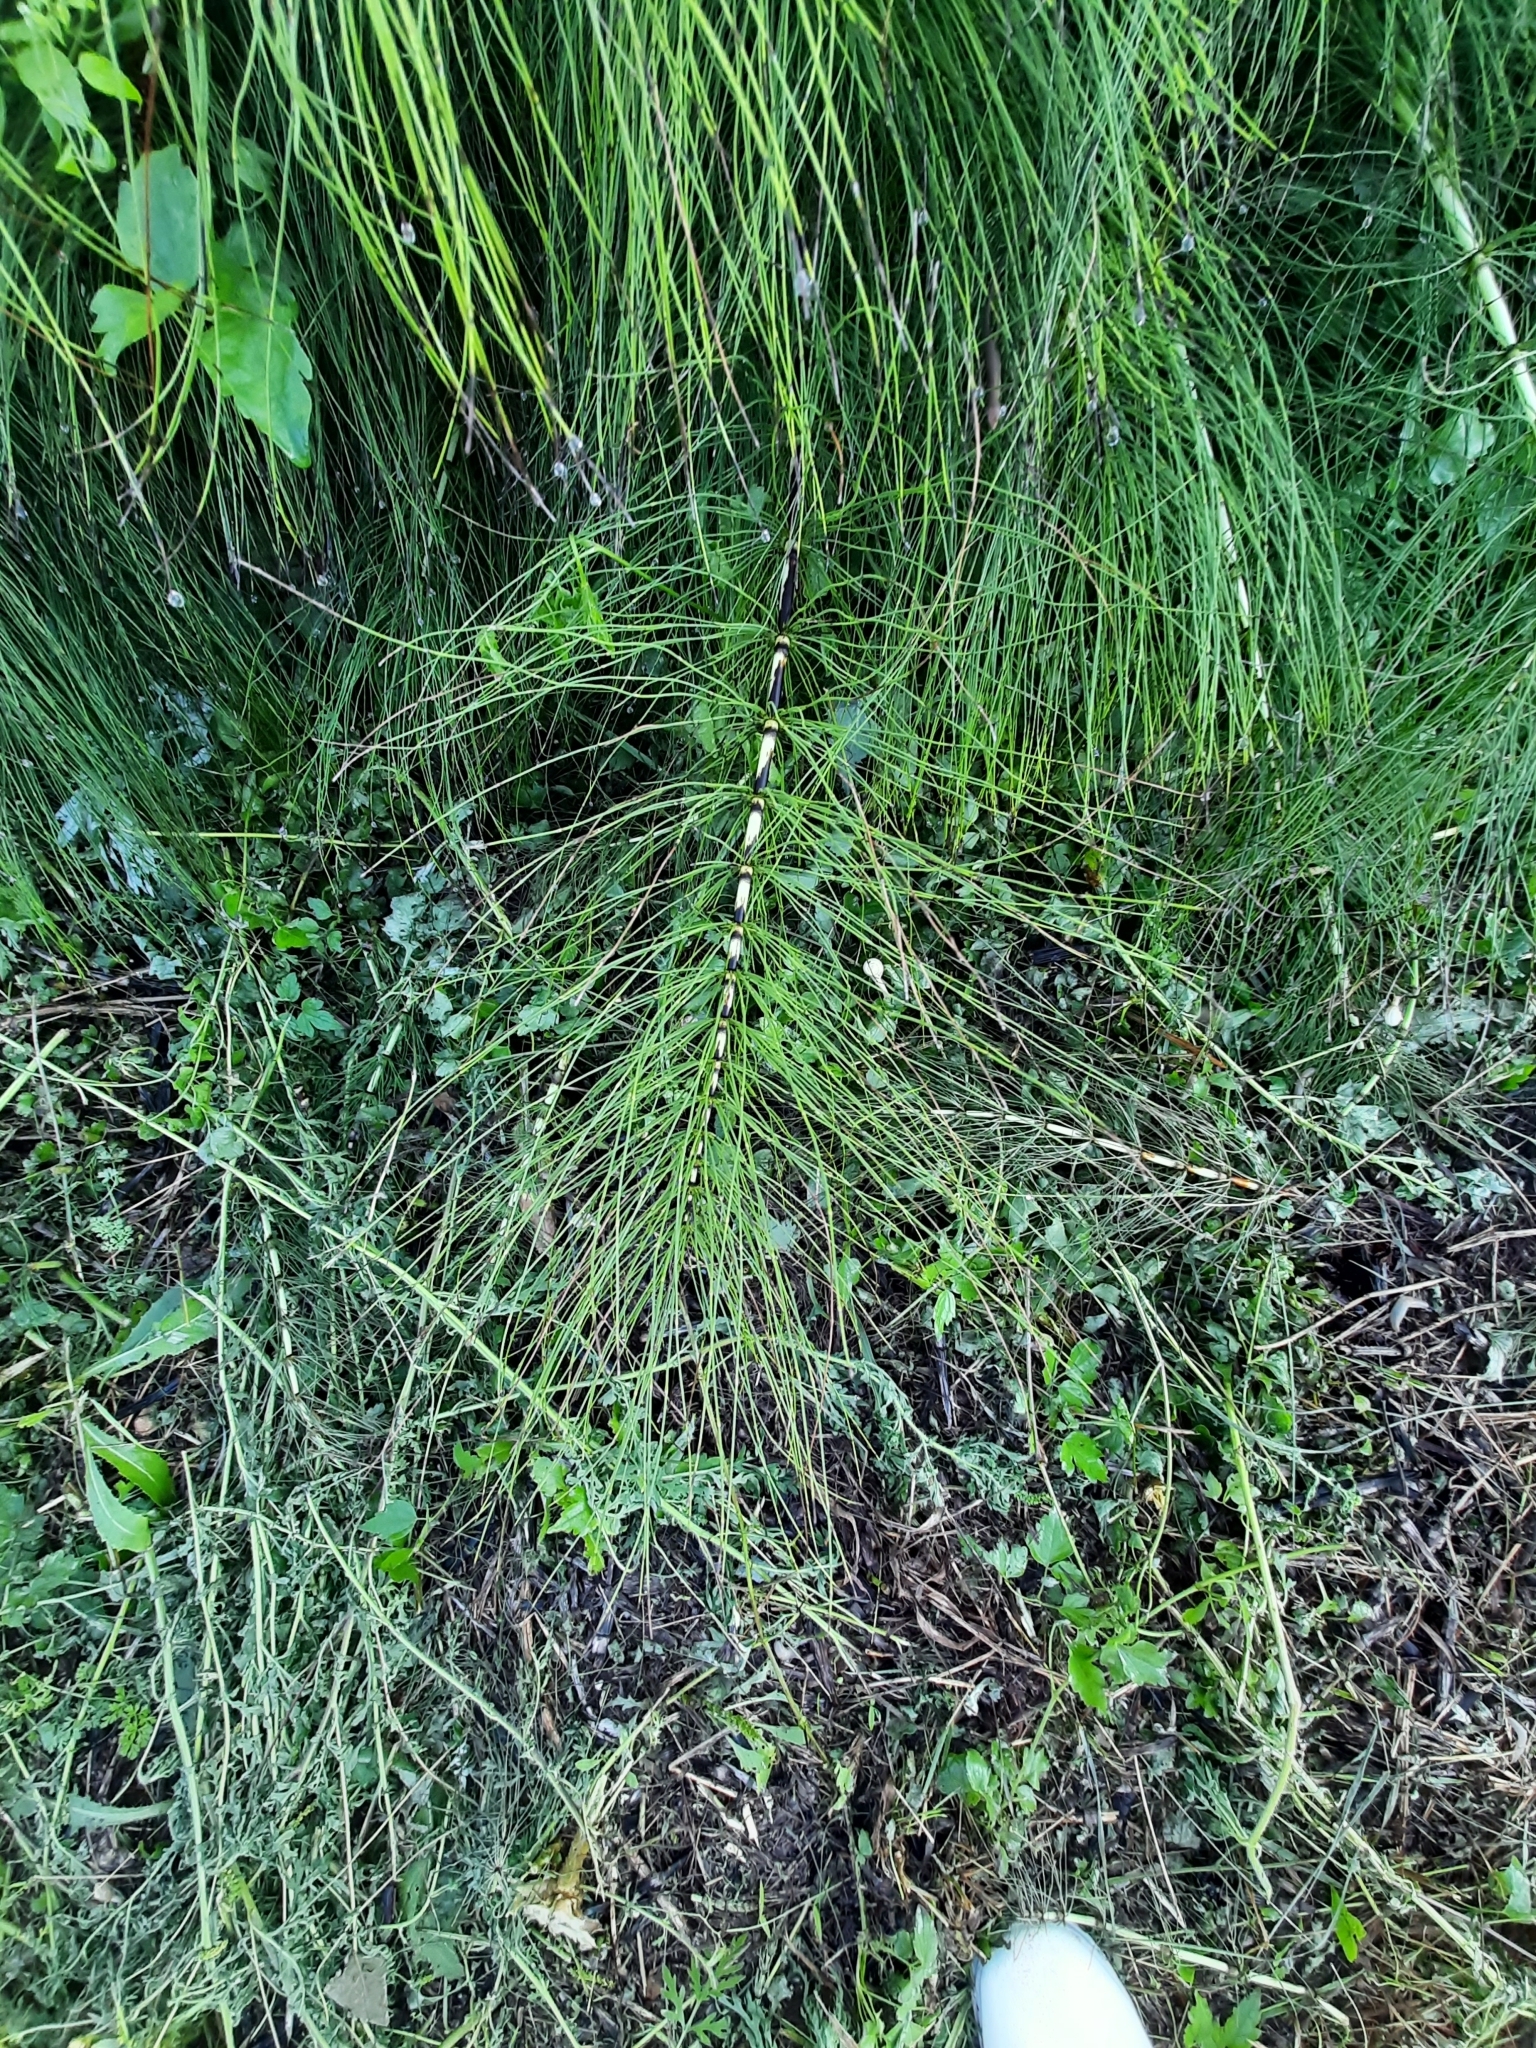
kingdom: Plantae
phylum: Tracheophyta
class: Polypodiopsida
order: Equisetales
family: Equisetaceae
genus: Equisetum
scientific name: Equisetum telmateia
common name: Great horsetail
